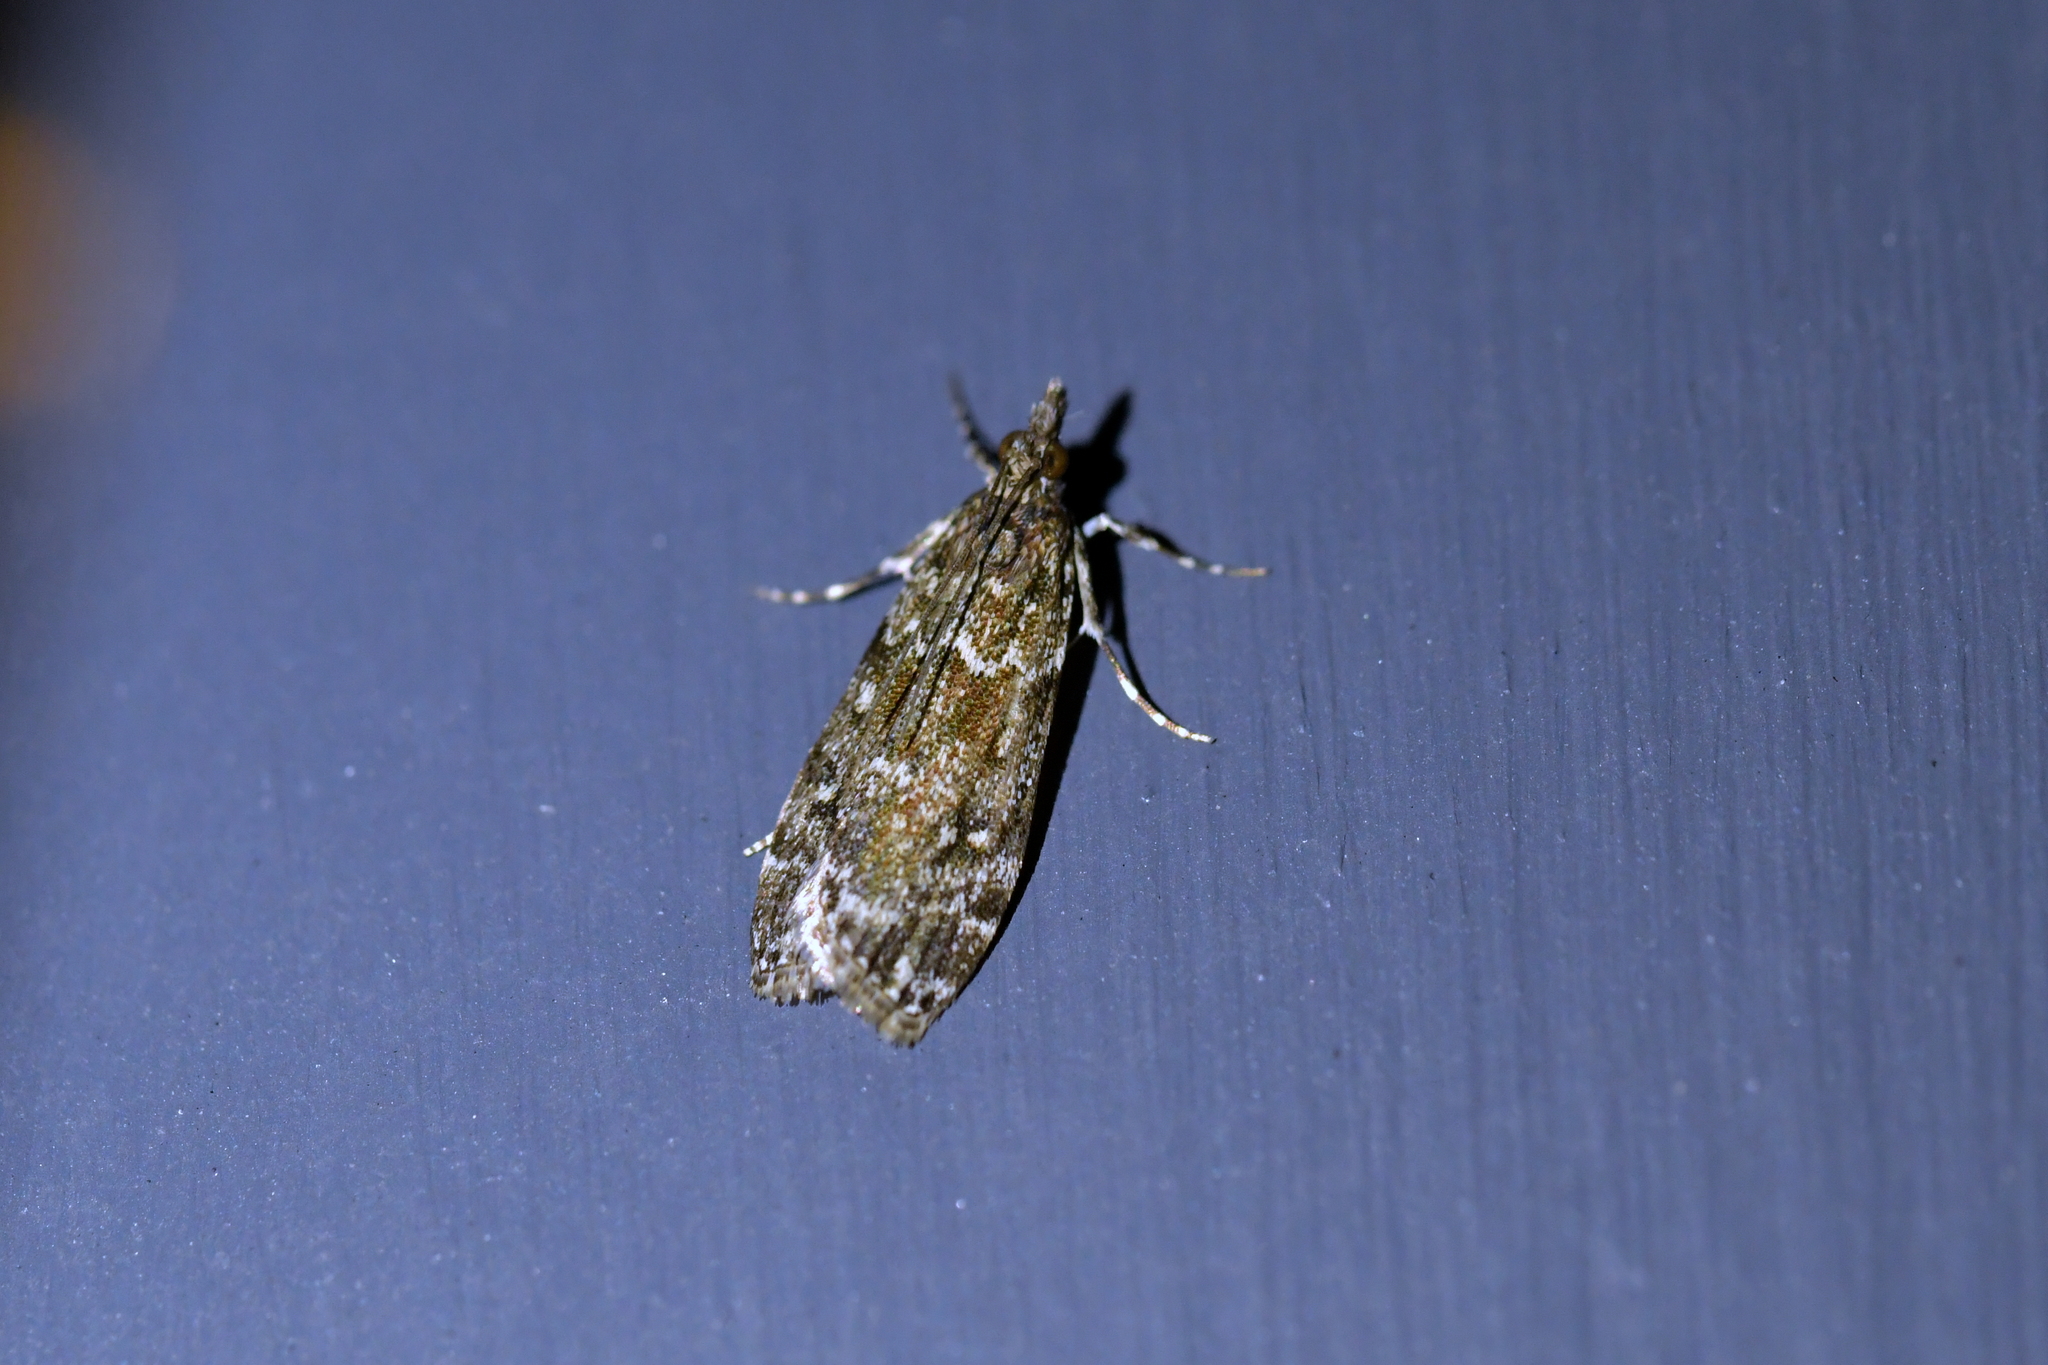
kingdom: Animalia
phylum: Arthropoda
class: Insecta
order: Lepidoptera
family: Crambidae
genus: Eudonia
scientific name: Eudonia philerga
